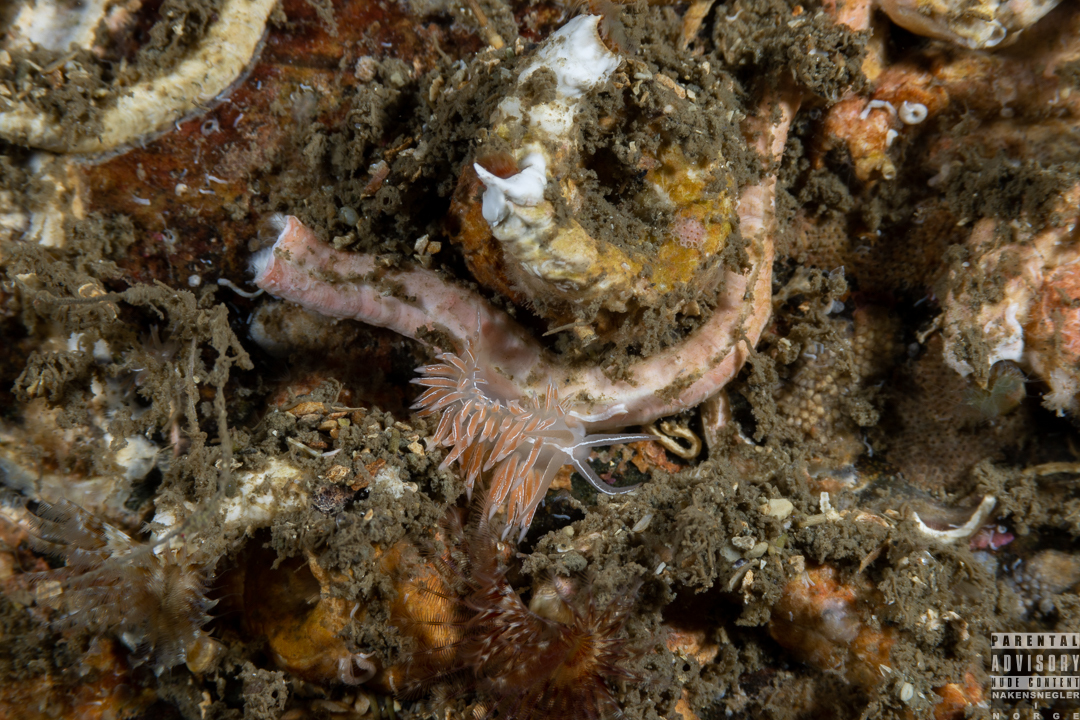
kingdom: Animalia
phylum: Mollusca
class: Gastropoda
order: Nudibranchia
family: Coryphellidae
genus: Coryphella
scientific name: Coryphella chriskaugei
